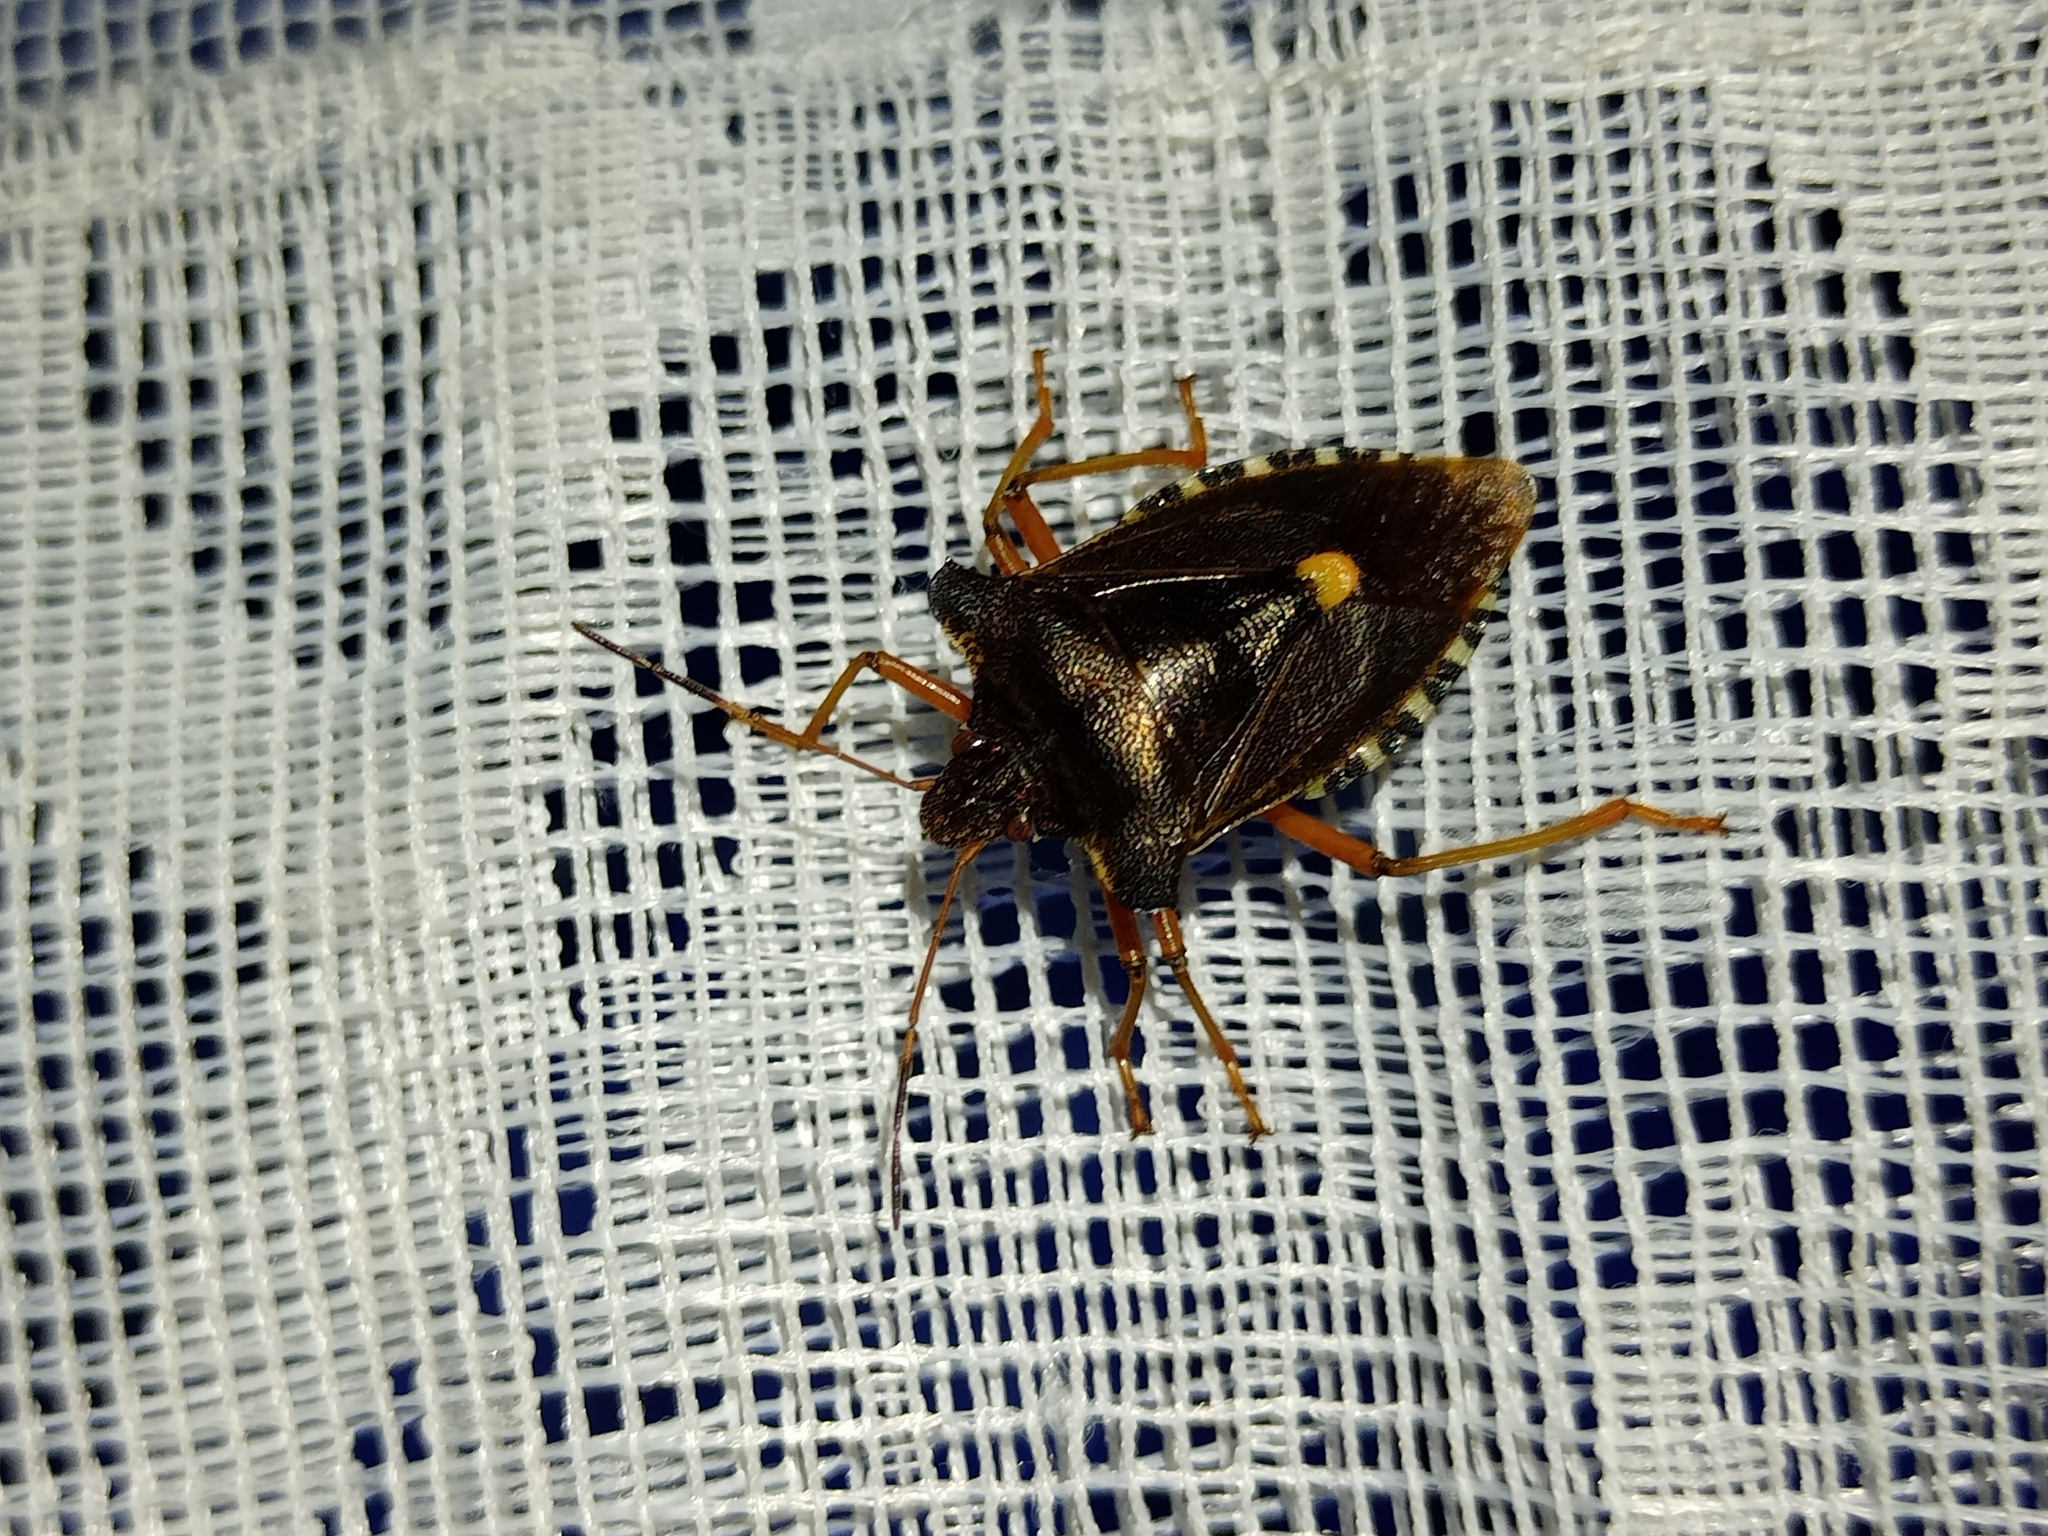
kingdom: Animalia
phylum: Arthropoda
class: Insecta
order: Hemiptera
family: Pentatomidae
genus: Pentatoma
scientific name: Pentatoma rufipes
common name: Forest bug
